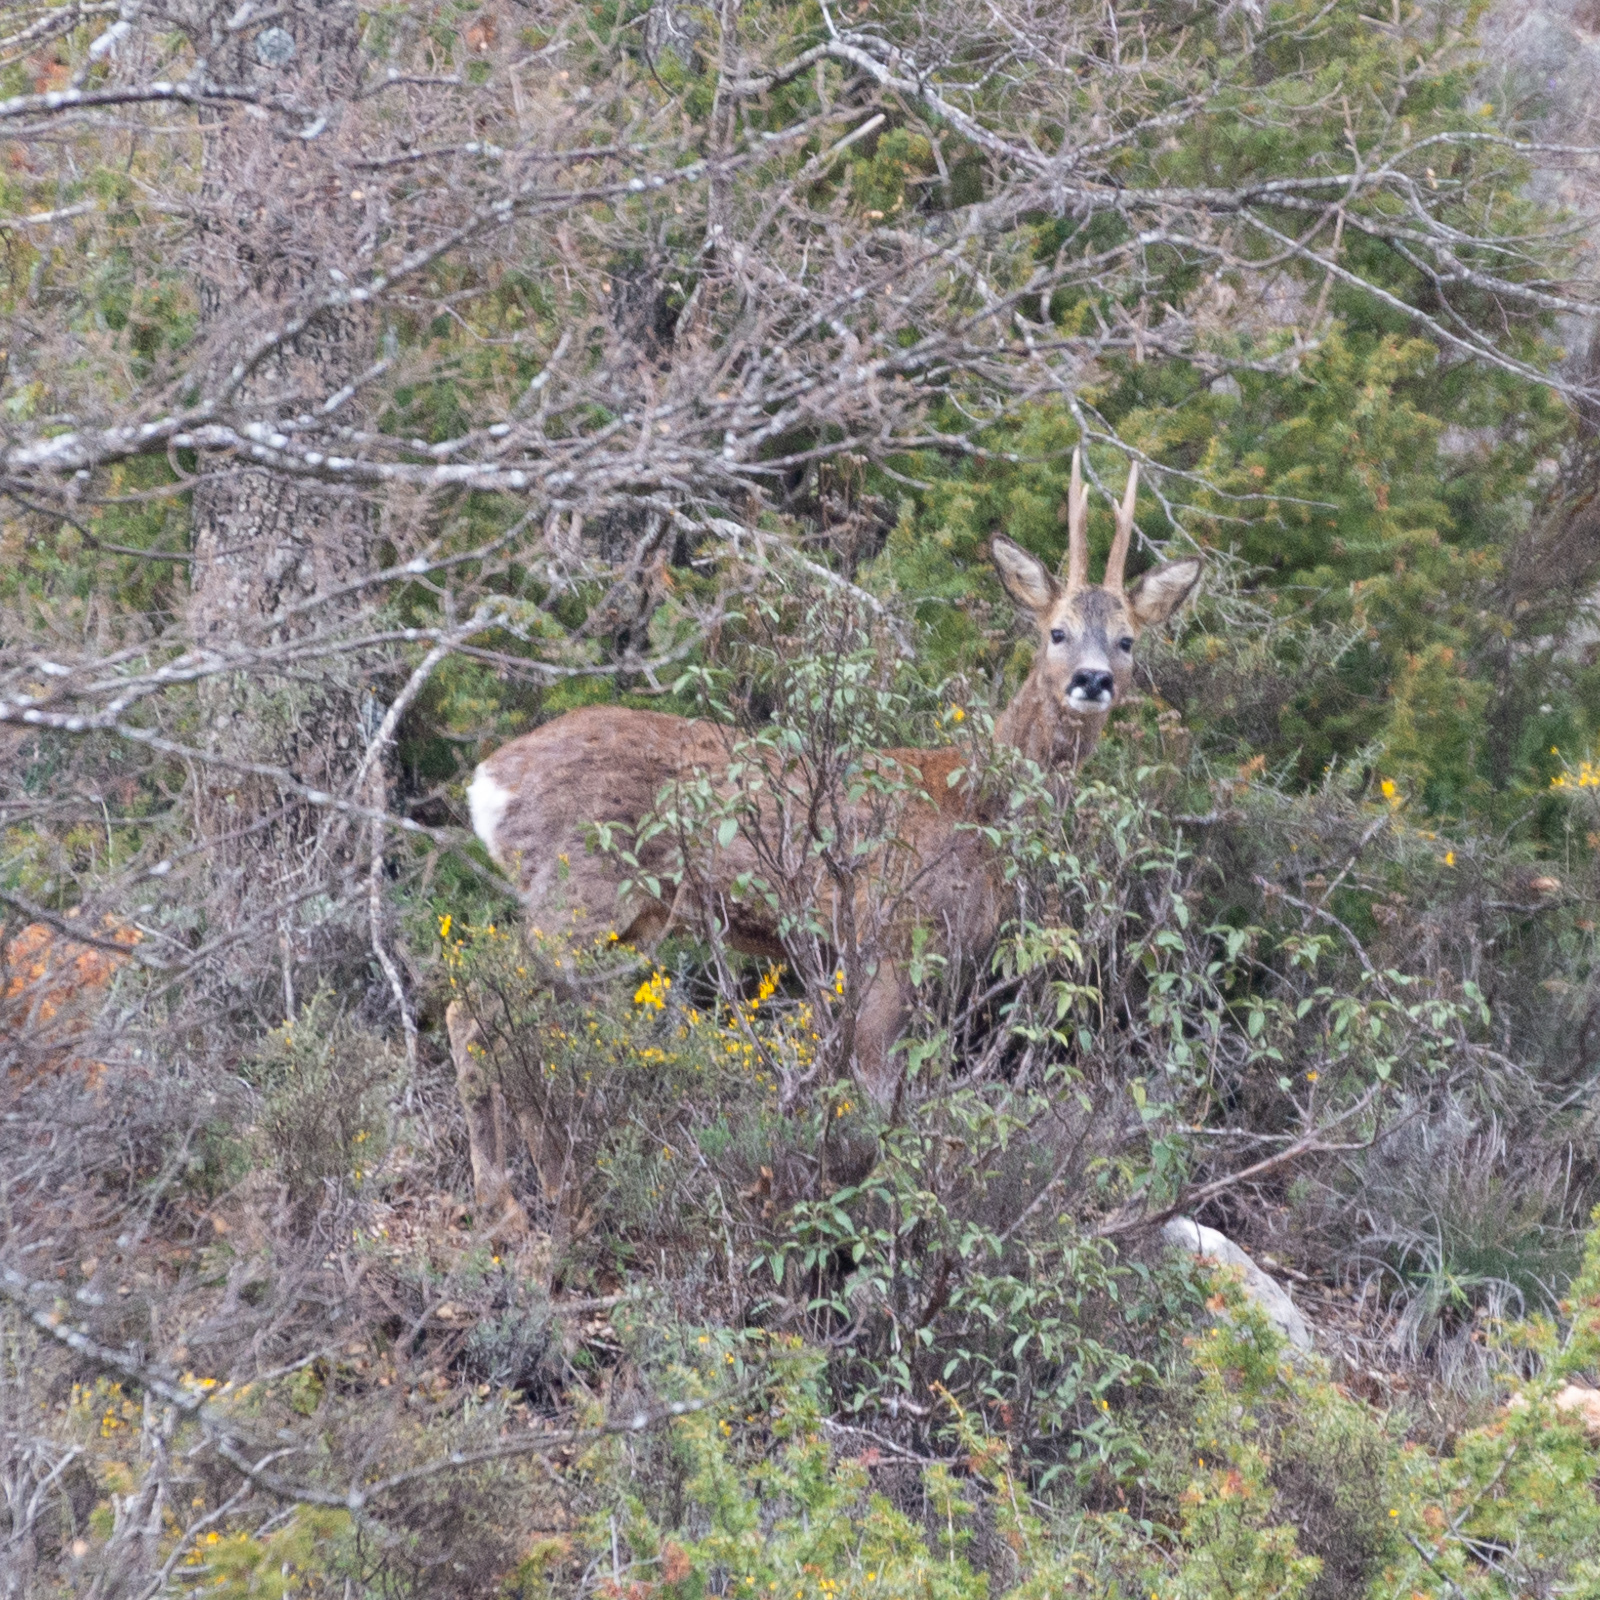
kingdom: Animalia
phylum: Chordata
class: Mammalia
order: Artiodactyla
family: Cervidae
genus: Capreolus
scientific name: Capreolus capreolus
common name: Western roe deer
